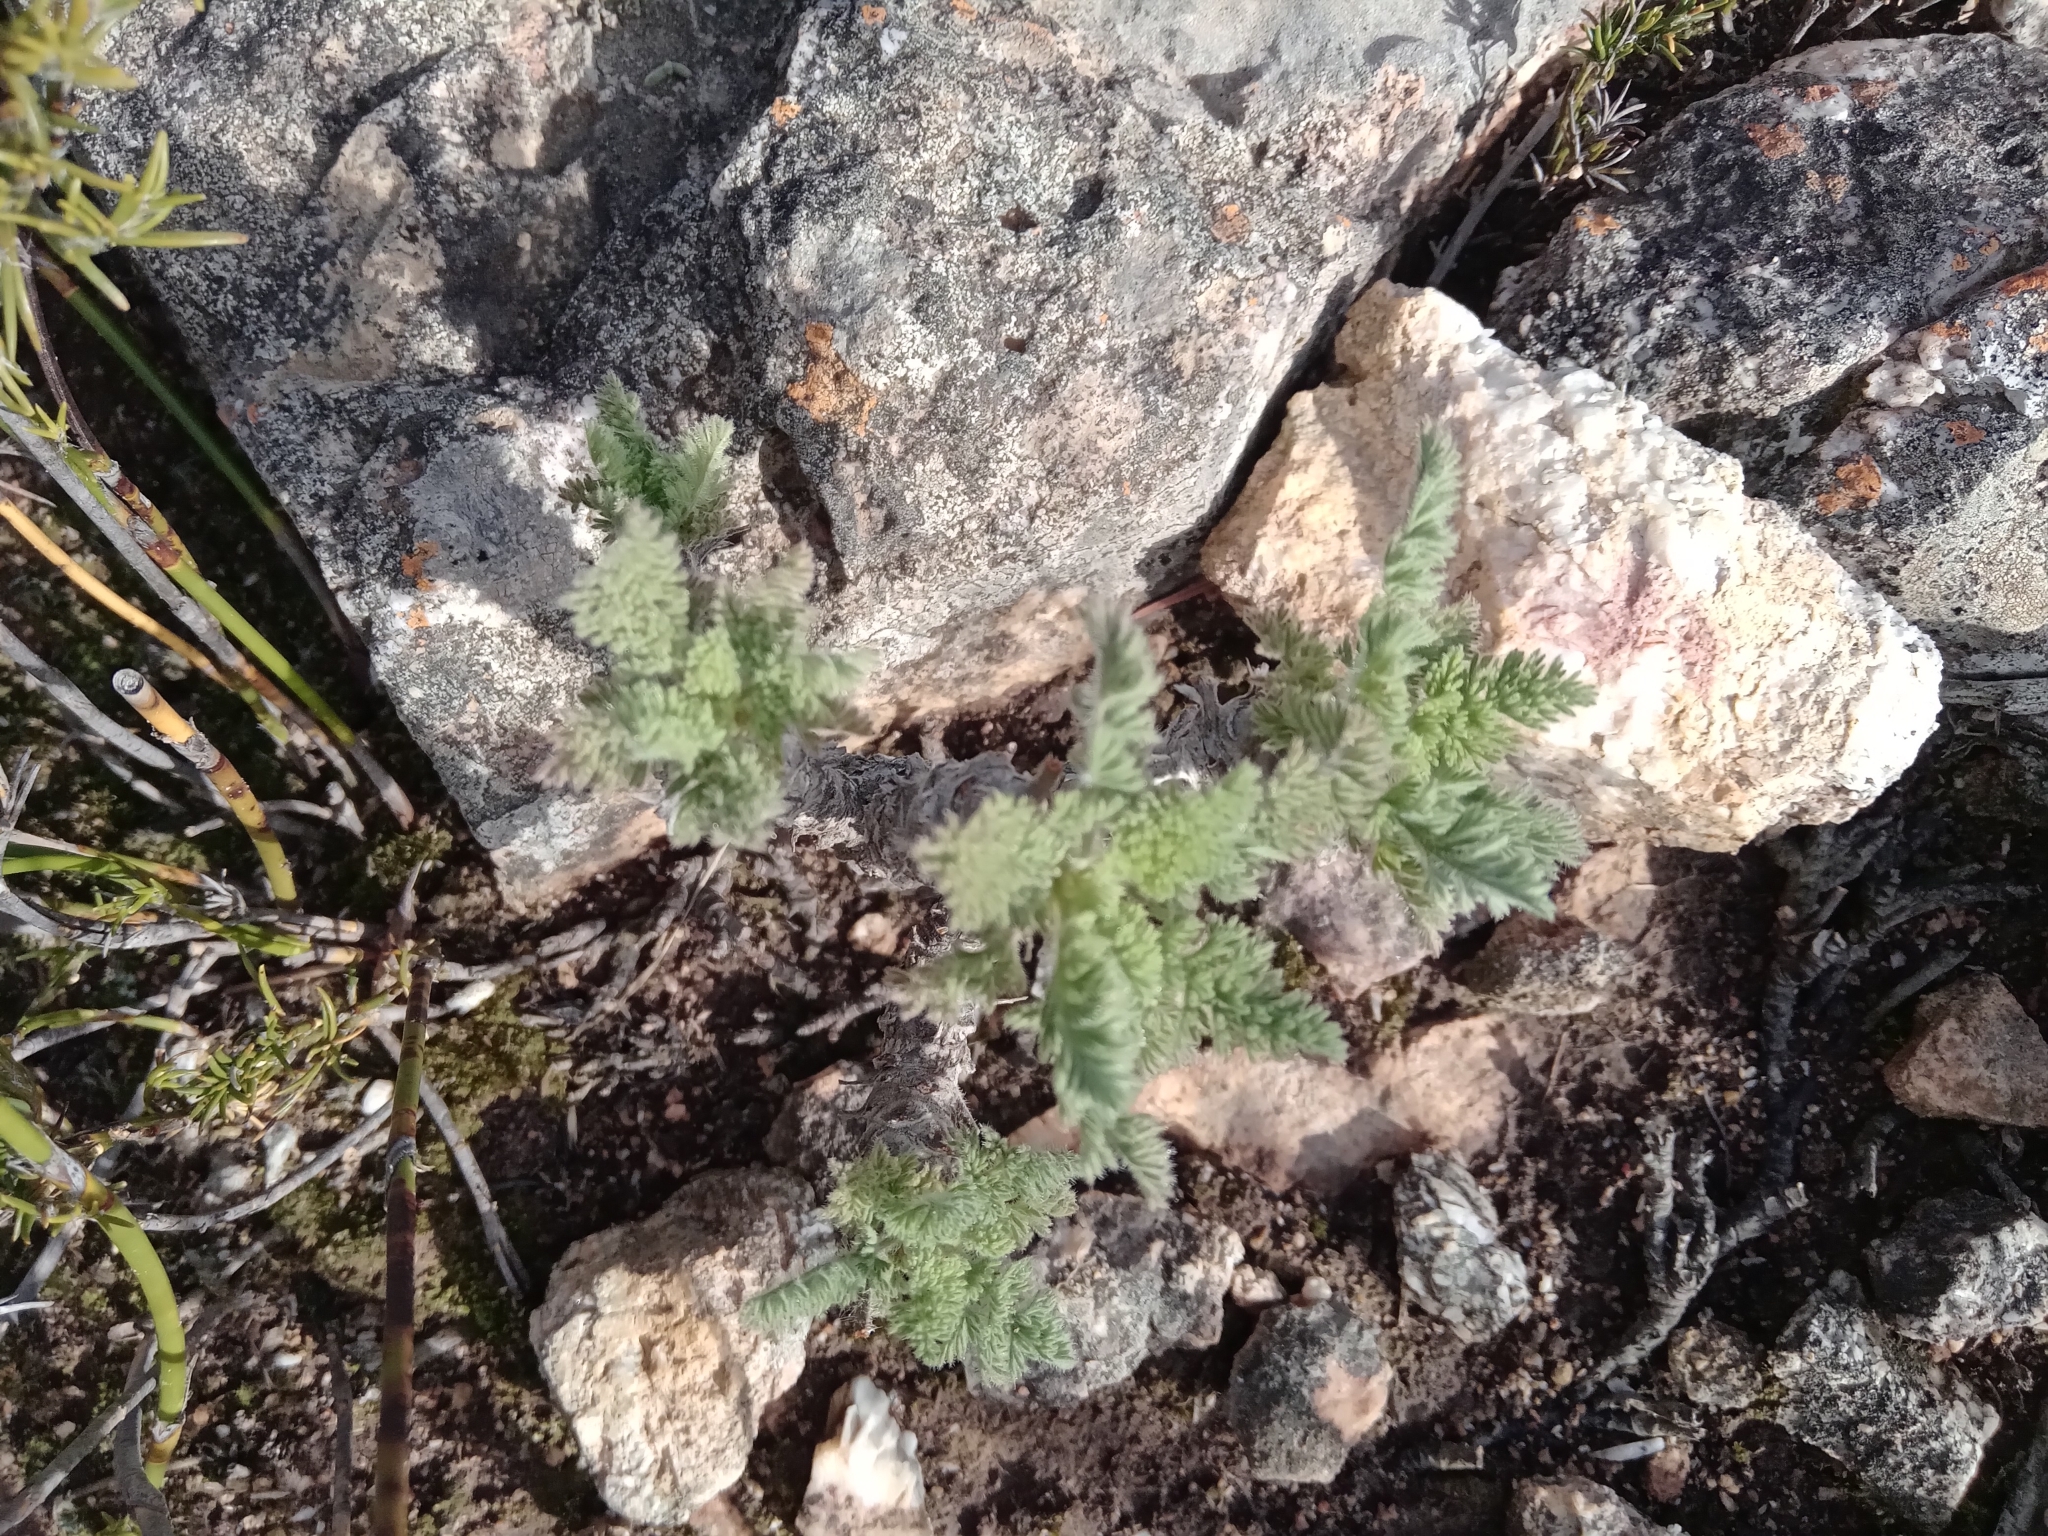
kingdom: Plantae
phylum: Tracheophyta
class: Magnoliopsida
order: Geraniales
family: Geraniaceae
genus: Pelargonium
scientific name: Pelargonium hirtum
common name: Fine-leaf pelargonium
